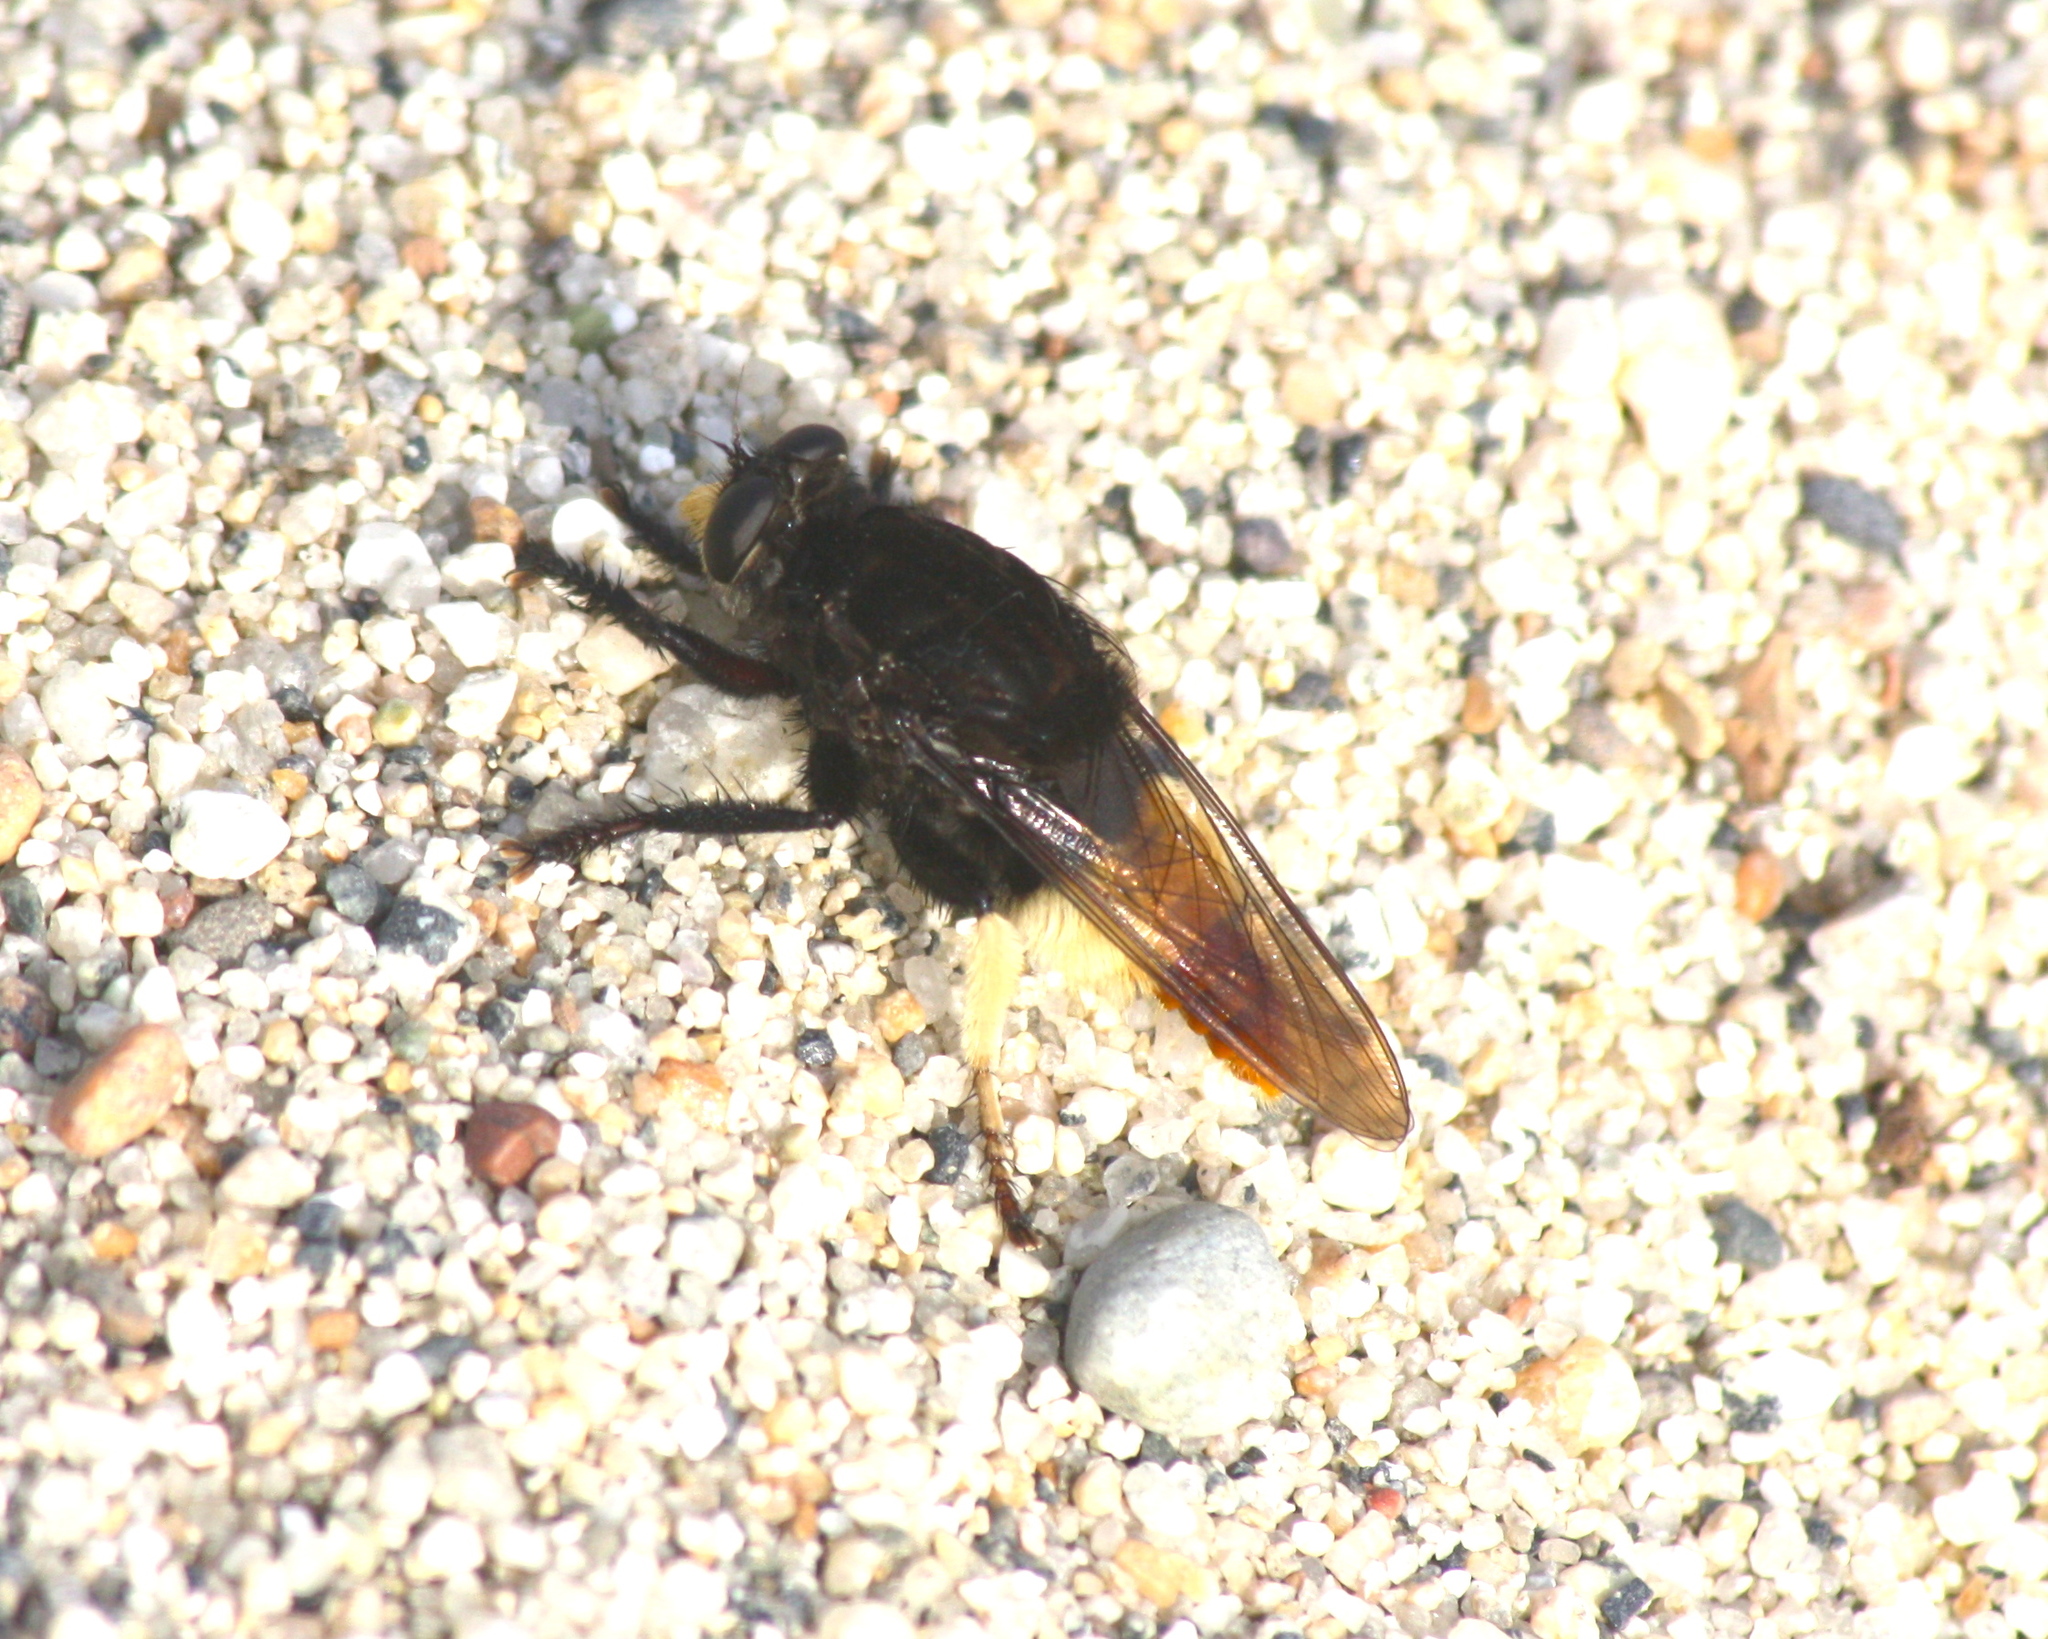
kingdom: Animalia
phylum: Arthropoda
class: Insecta
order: Diptera
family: Asilidae
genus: Eccritosia
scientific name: Eccritosia barbata
